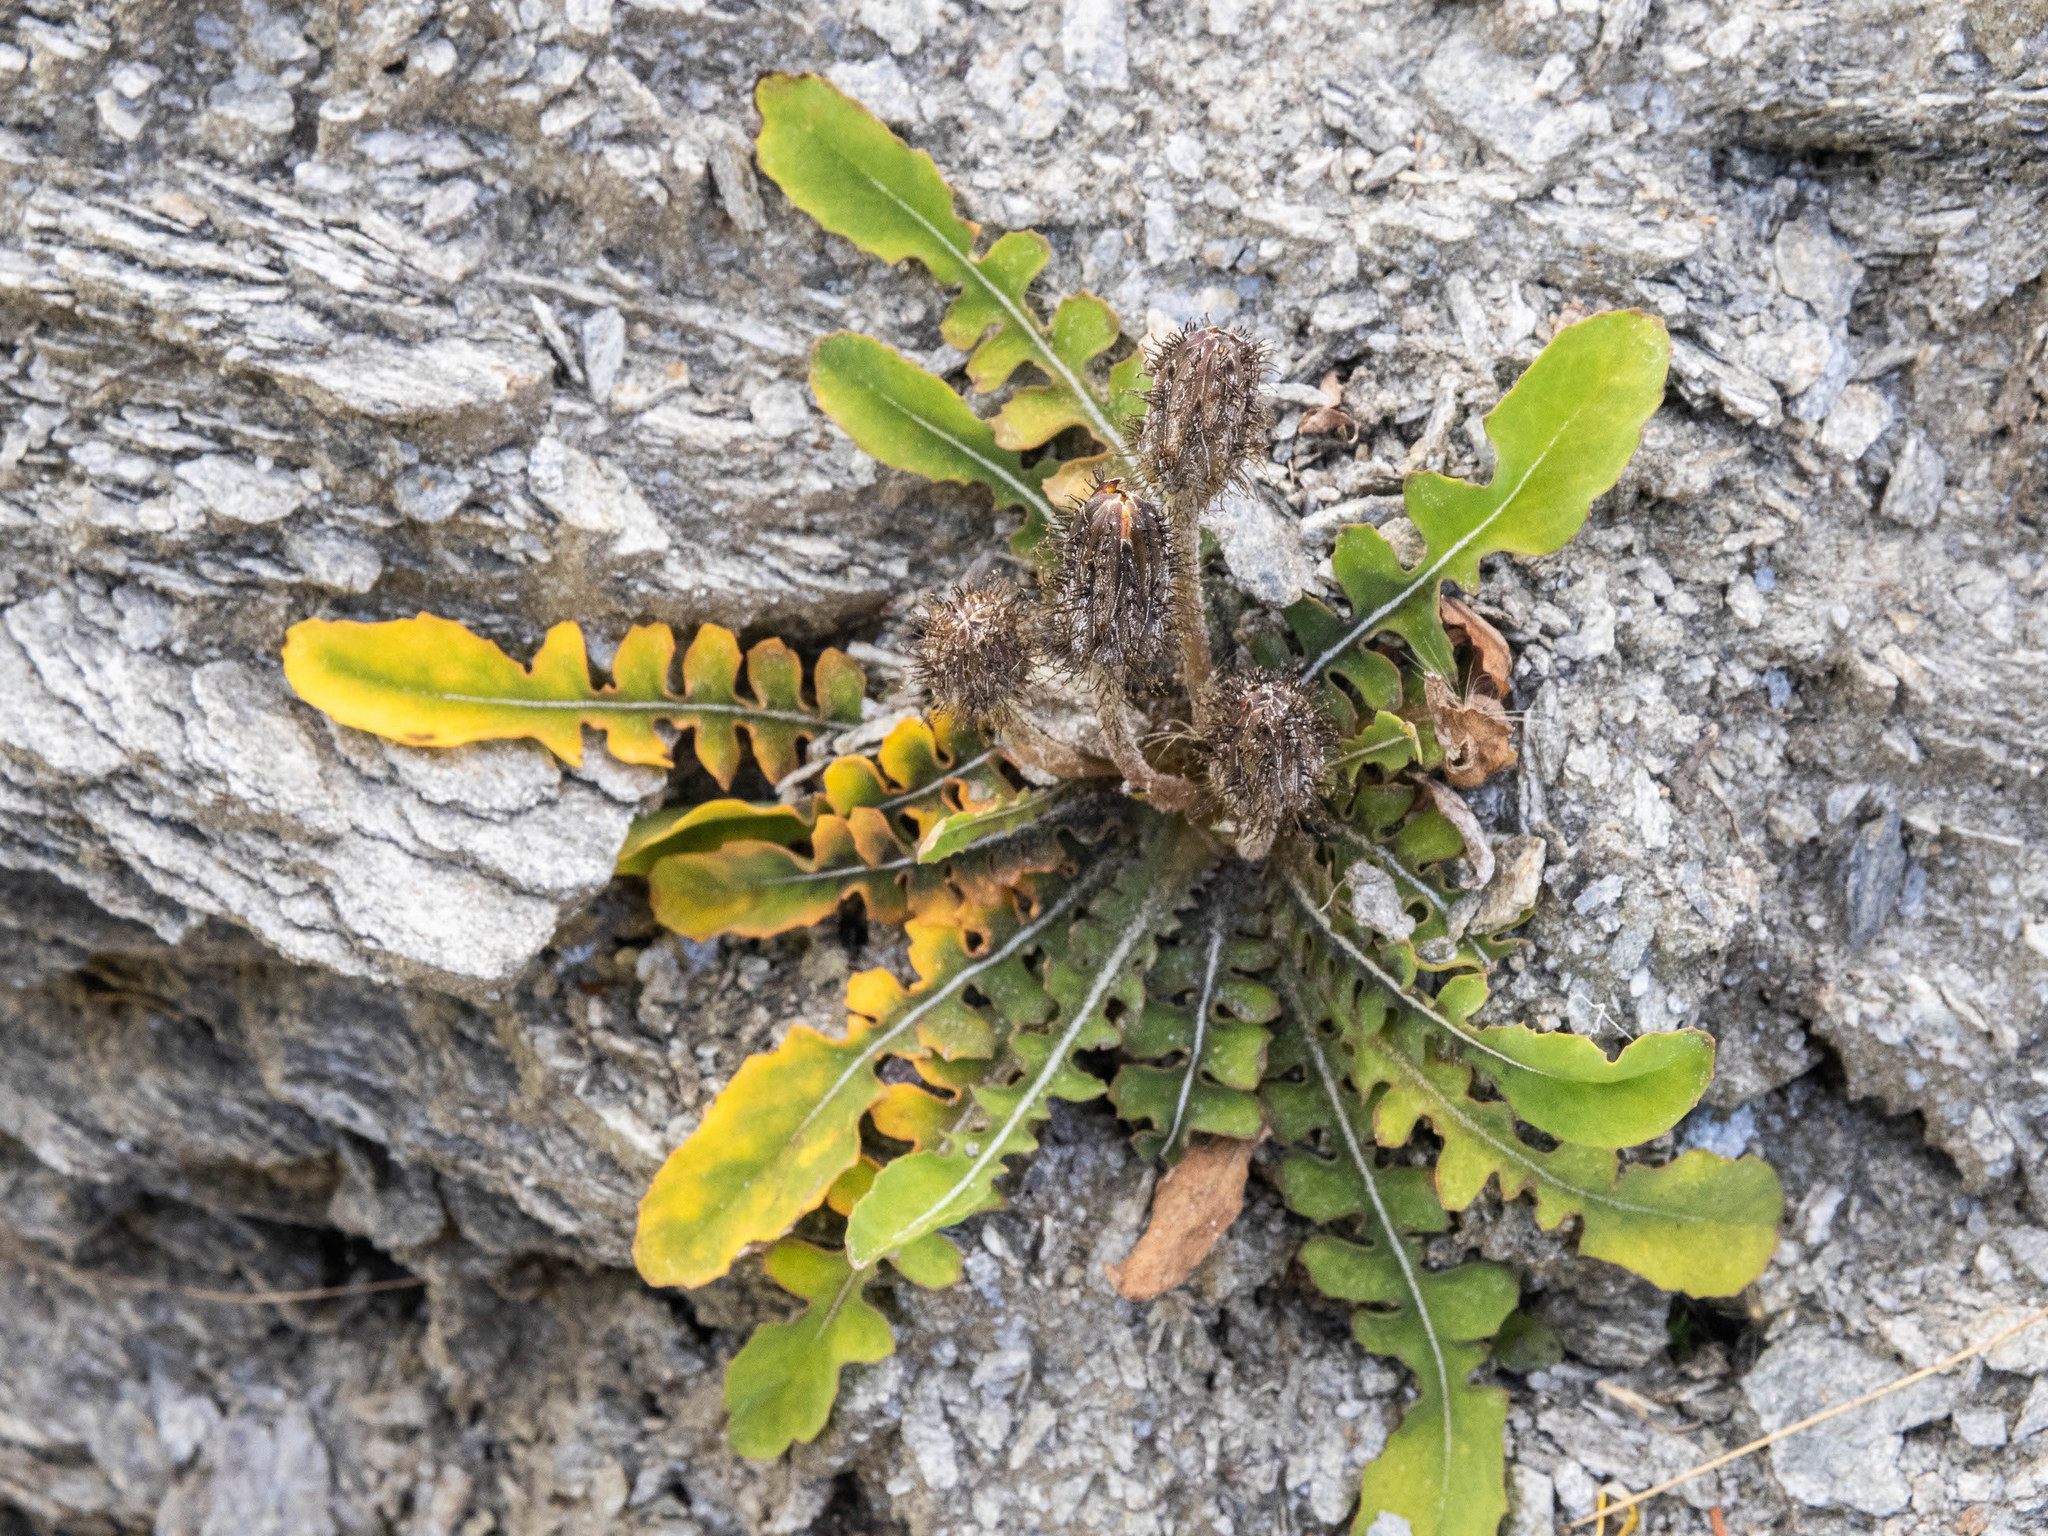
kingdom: Plantae
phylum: Tracheophyta
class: Magnoliopsida
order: Asterales
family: Asteraceae
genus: Sonchus
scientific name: Sonchus novae-zelandiae
